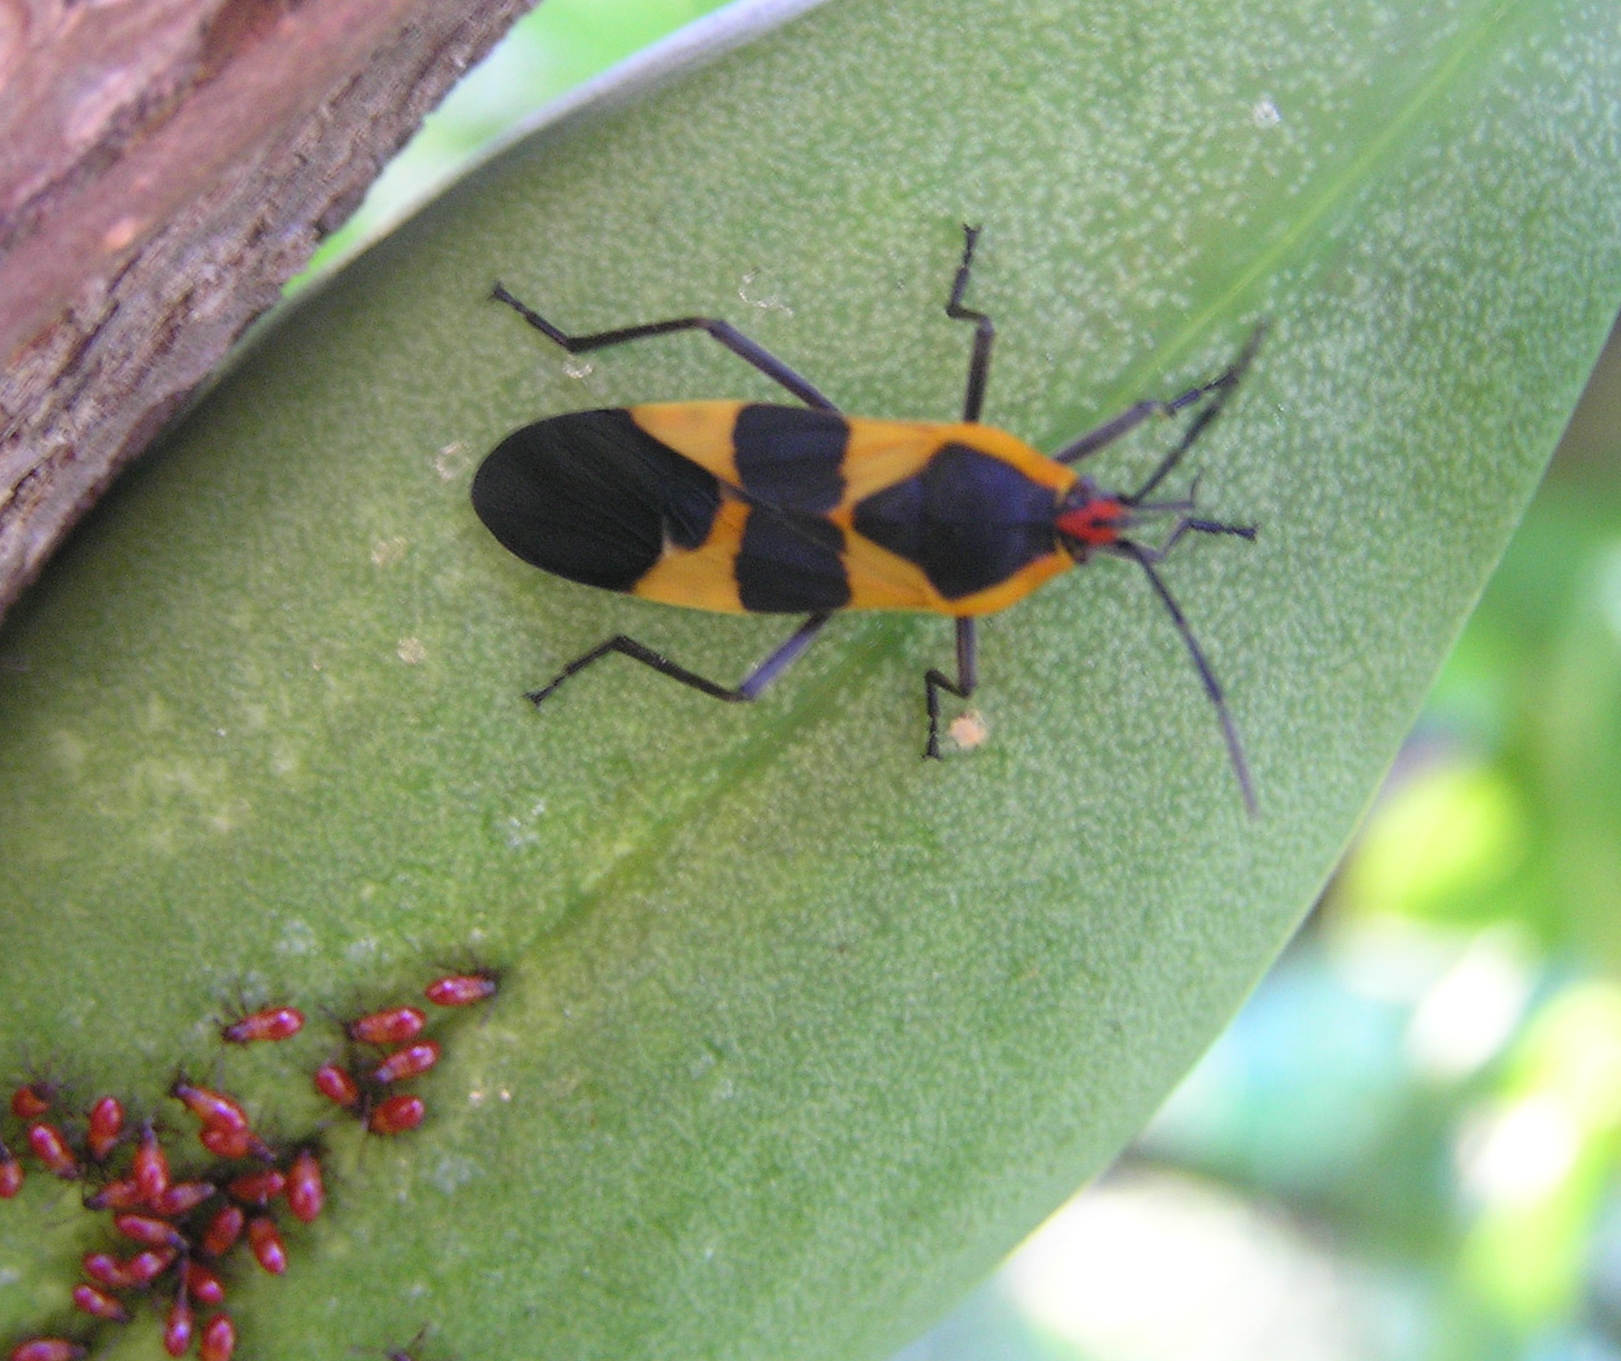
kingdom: Animalia
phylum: Arthropoda
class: Insecta
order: Hemiptera
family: Lygaeidae
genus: Oncopeltus
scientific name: Oncopeltus fasciatus
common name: Large milkweed bug
